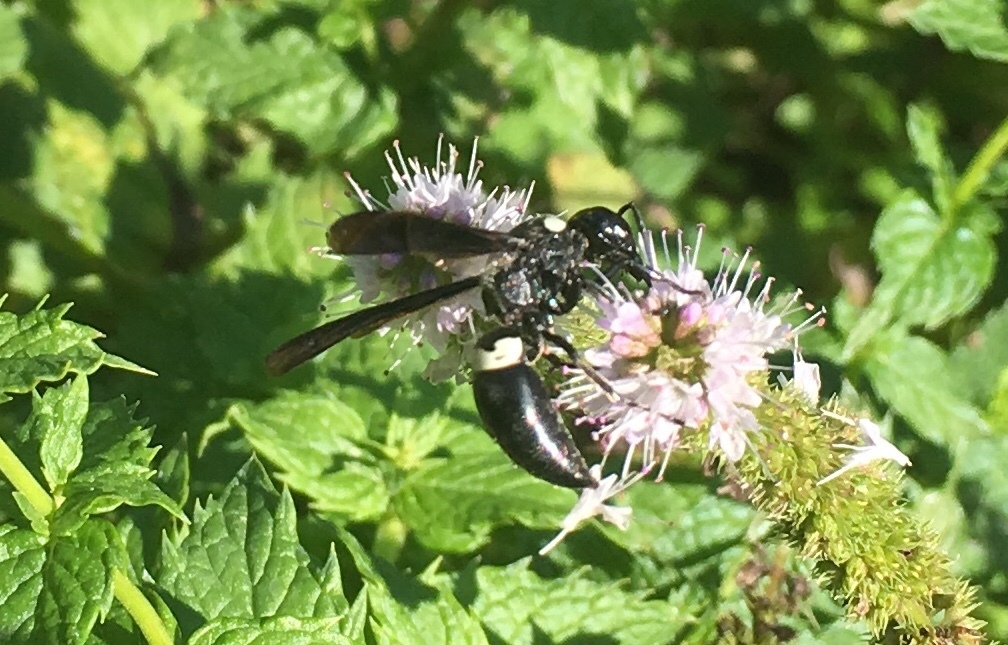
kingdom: Animalia
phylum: Arthropoda
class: Insecta
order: Hymenoptera
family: Eumenidae
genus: Monobia
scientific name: Monobia quadridens
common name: Four-toothed mason wasp
